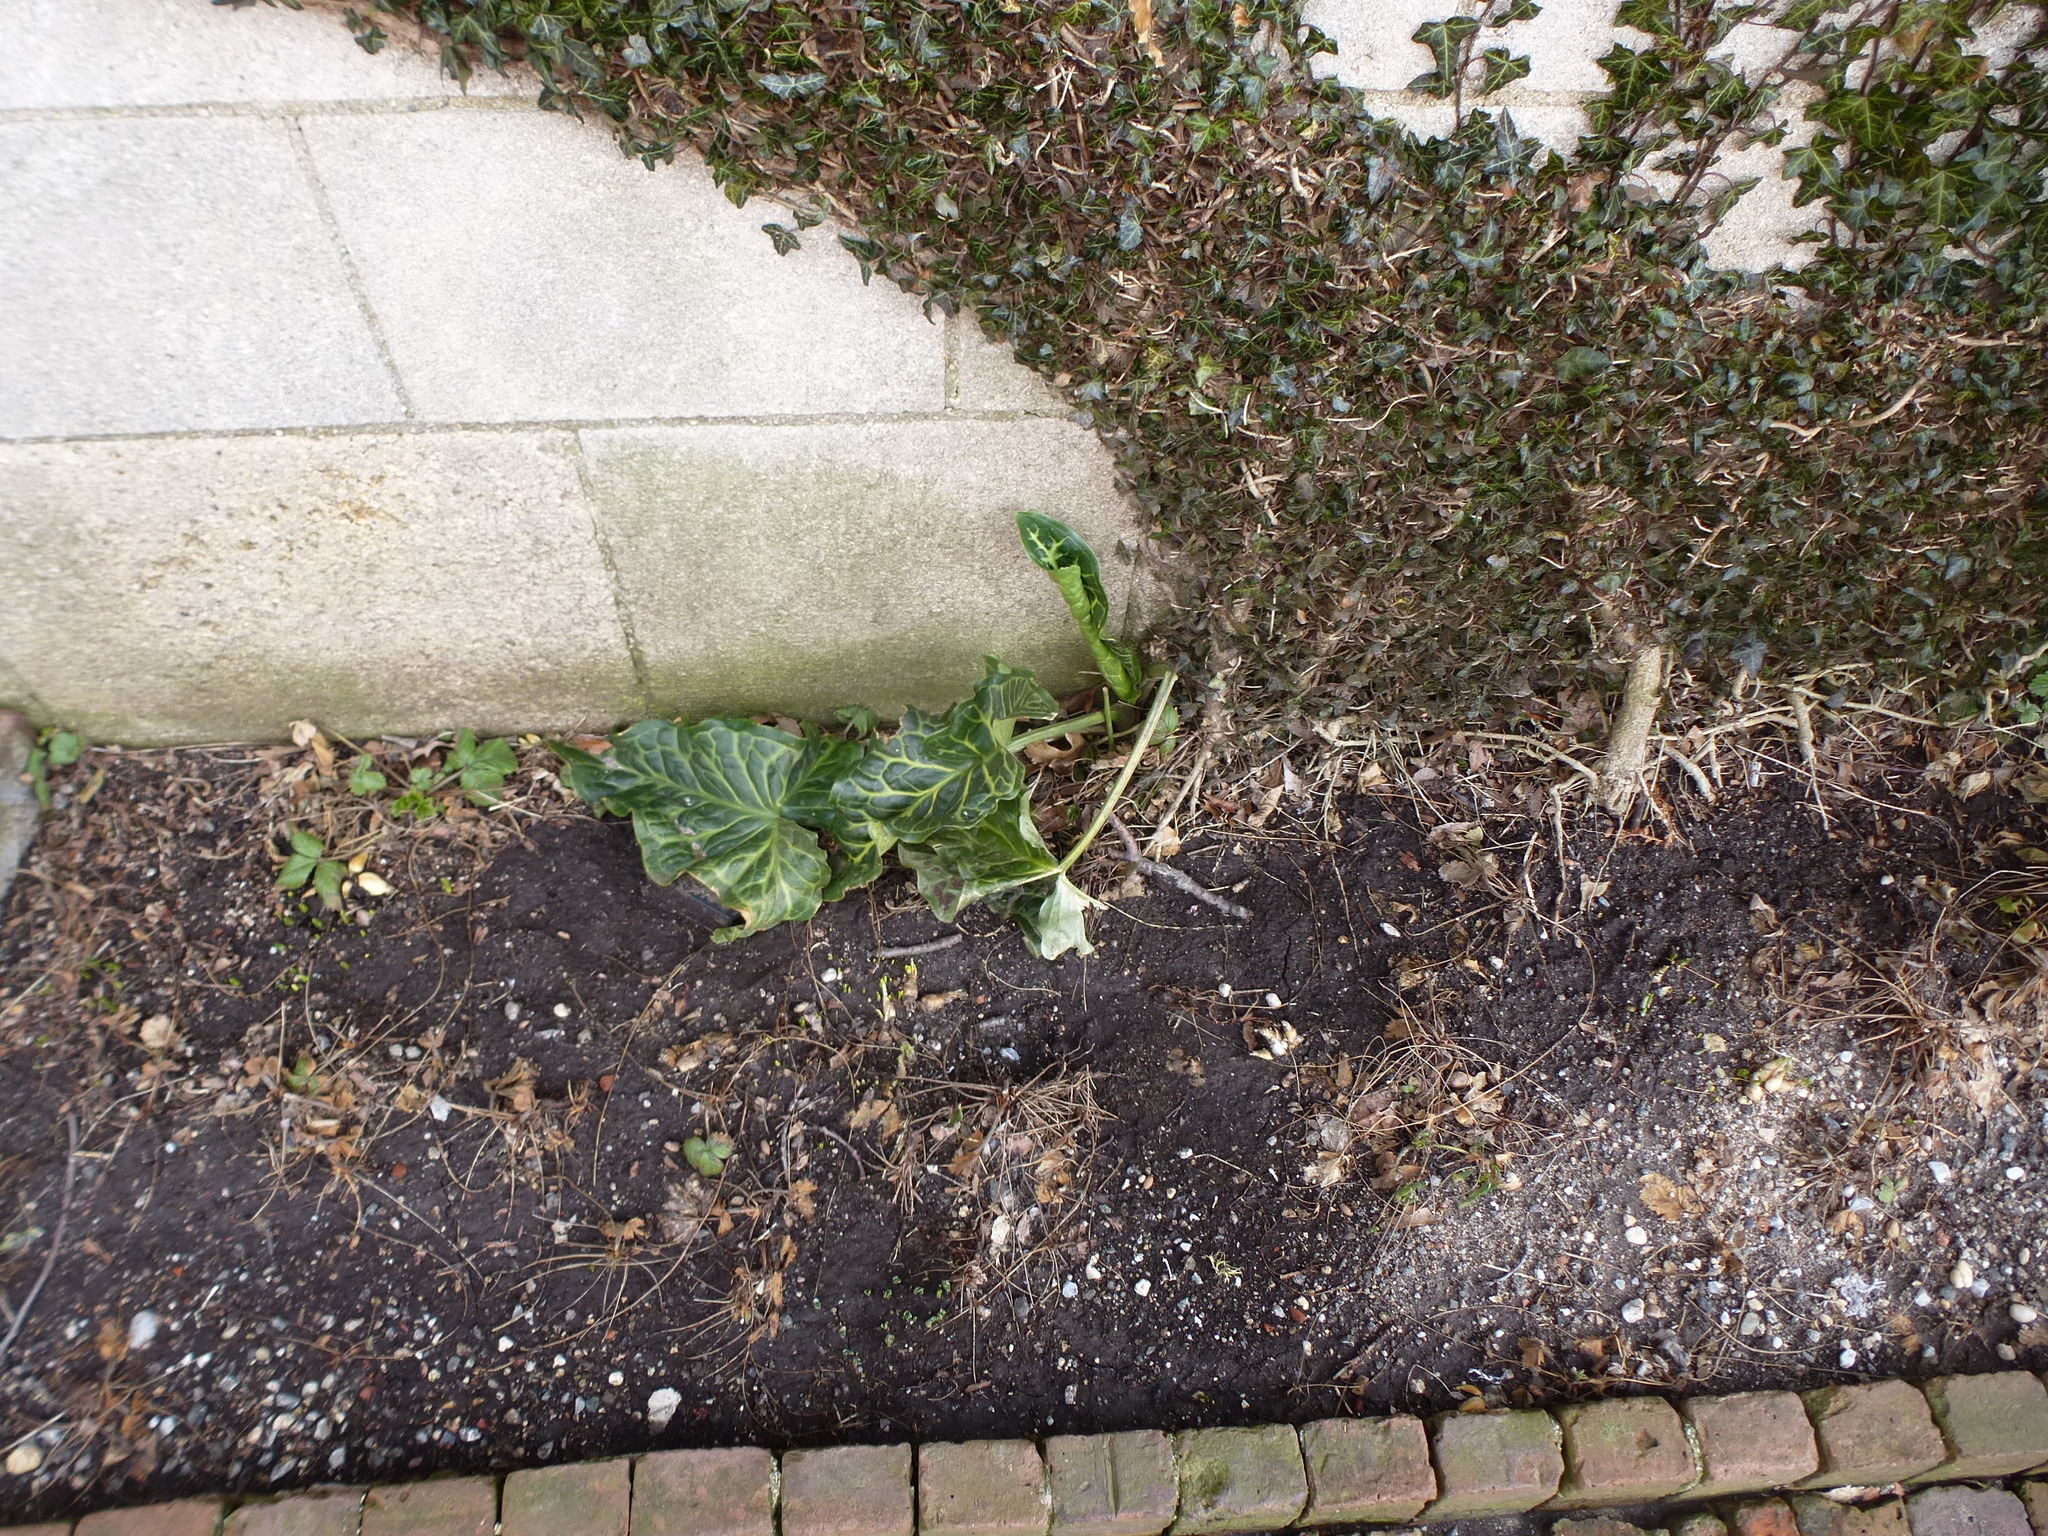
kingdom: Plantae
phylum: Tracheophyta
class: Liliopsida
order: Alismatales
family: Araceae
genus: Arum
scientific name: Arum italicum
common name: Italian lords-and-ladies
